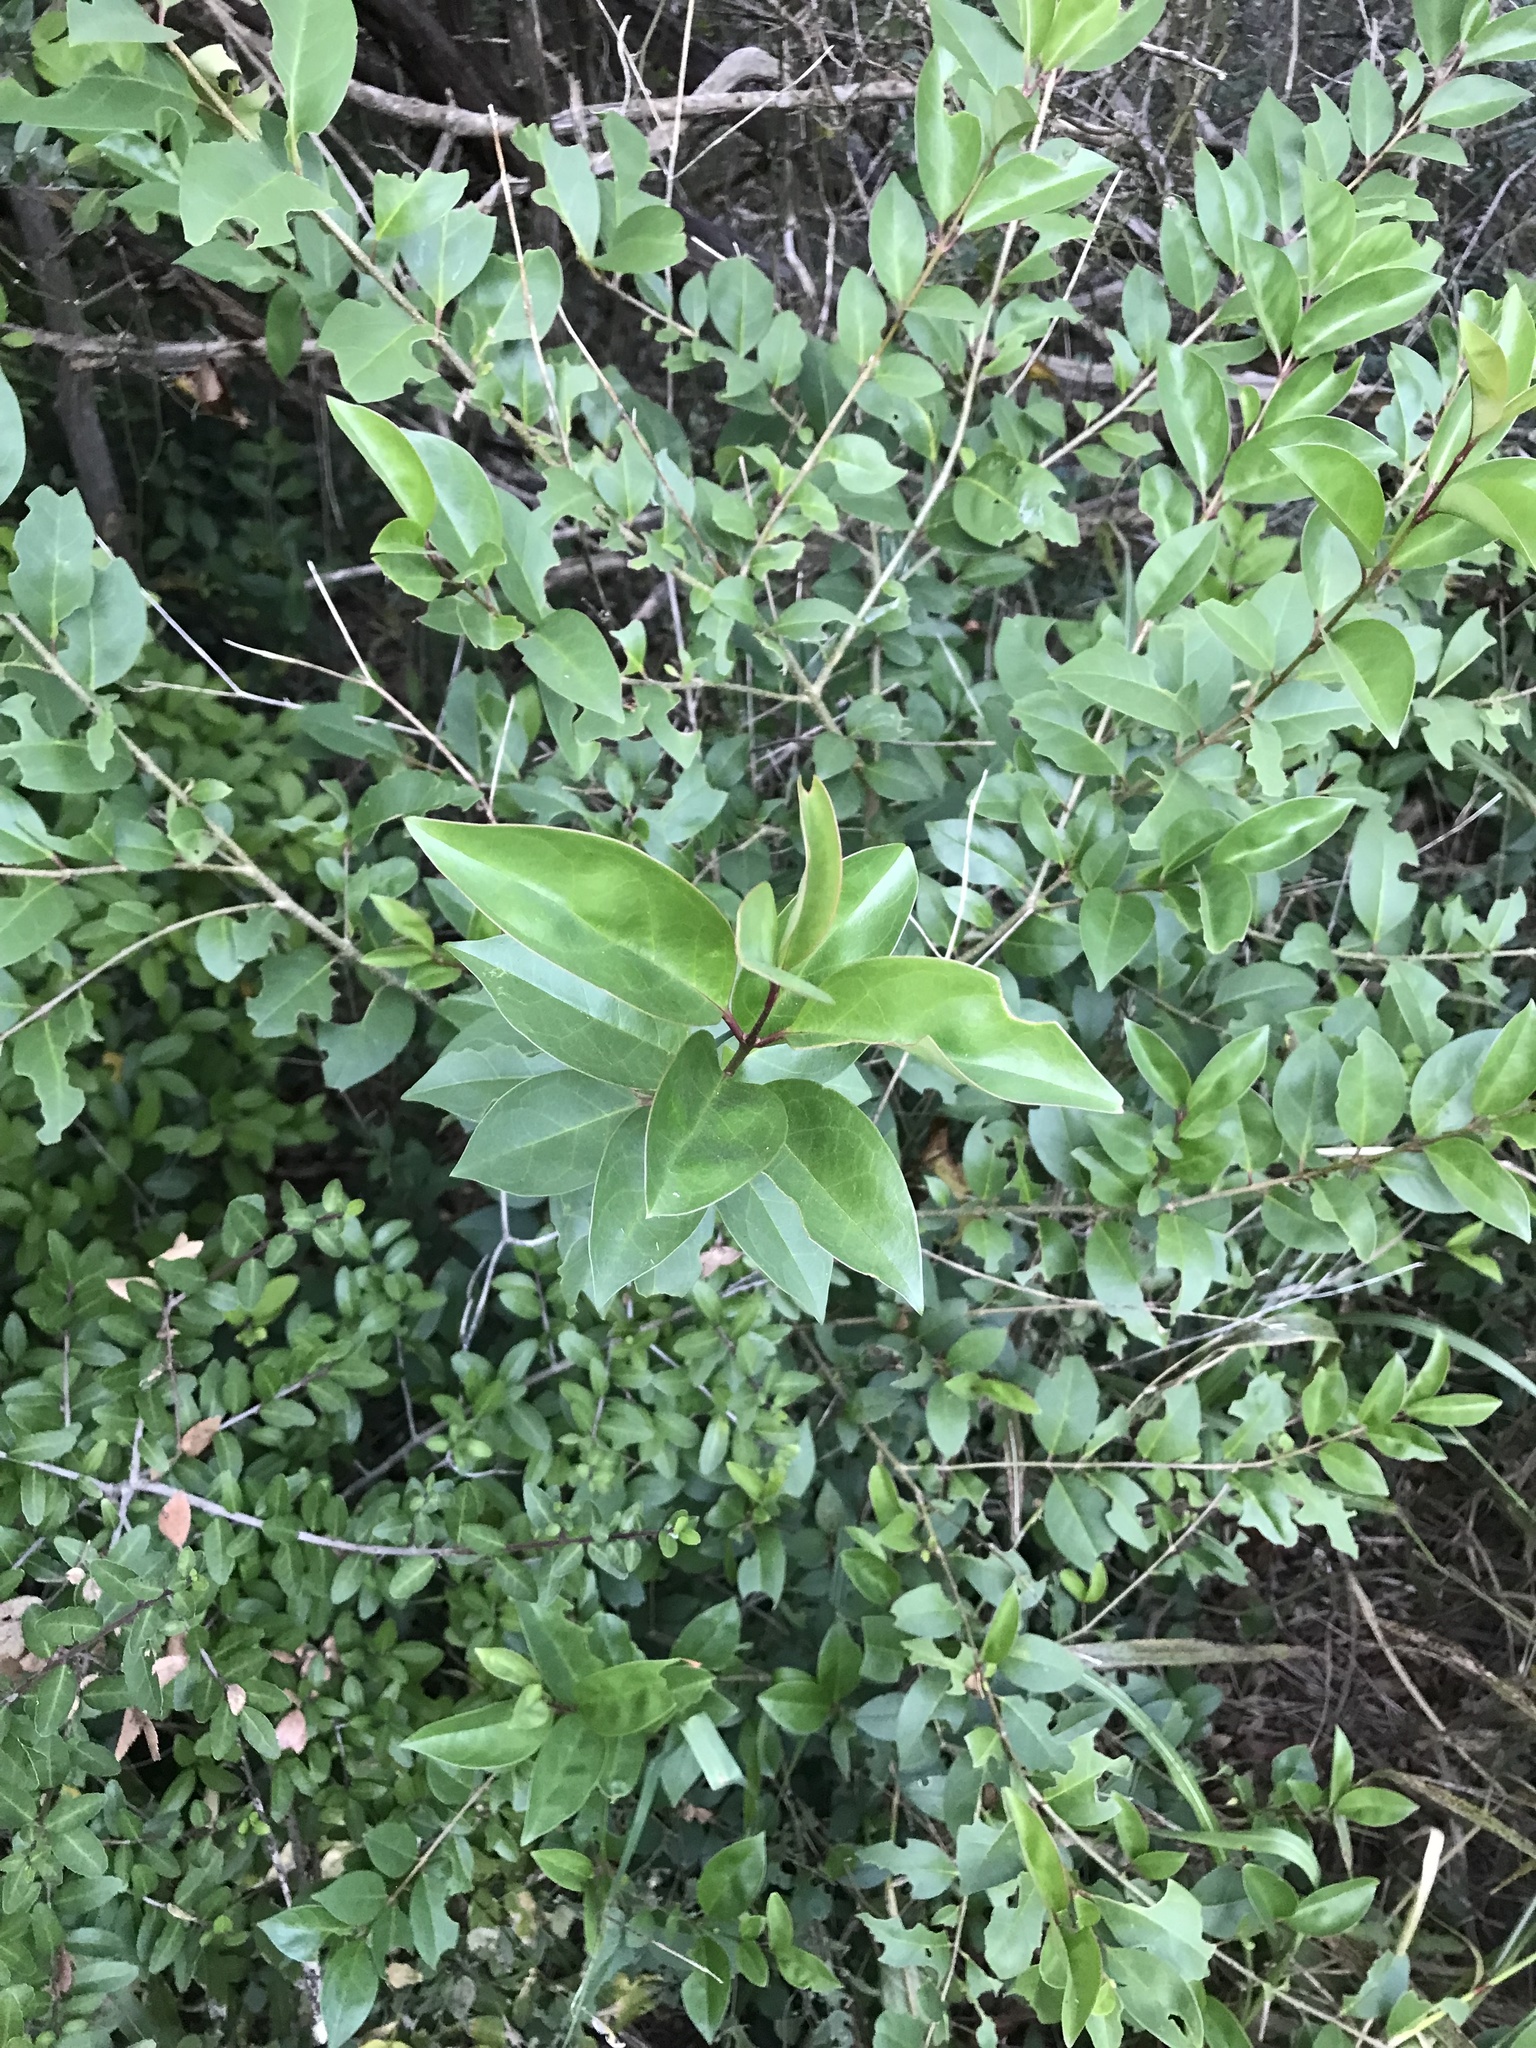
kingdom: Plantae
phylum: Tracheophyta
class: Magnoliopsida
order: Lamiales
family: Oleaceae
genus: Ligustrum
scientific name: Ligustrum lucidum
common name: Glossy privet
